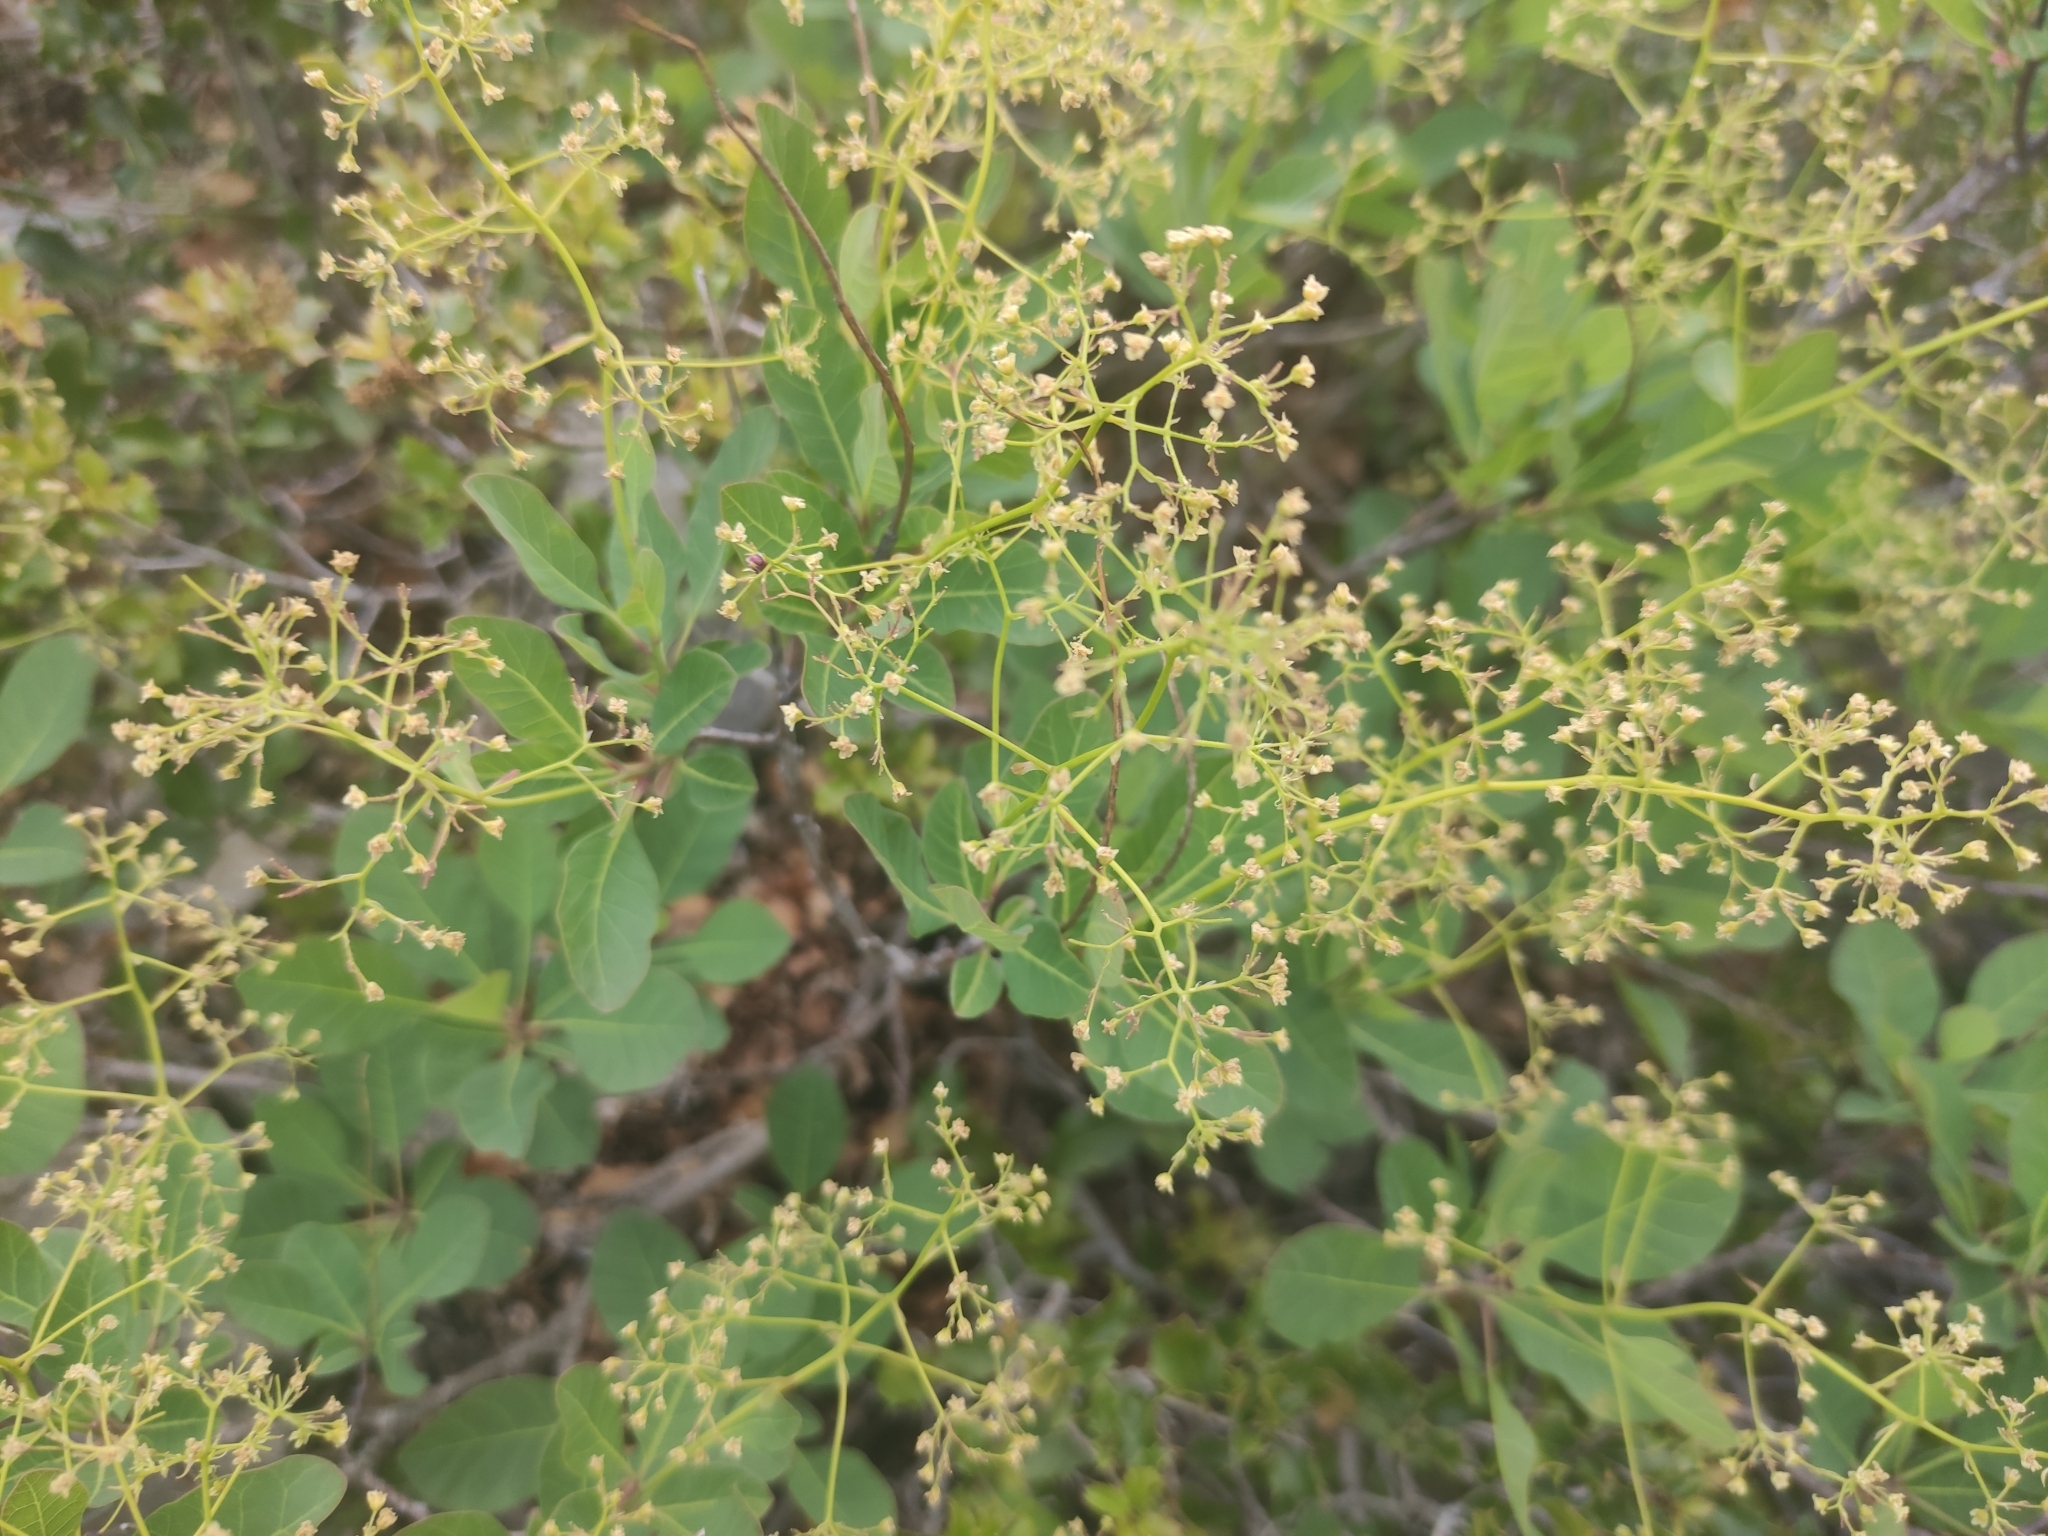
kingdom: Plantae
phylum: Tracheophyta
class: Magnoliopsida
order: Sapindales
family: Anacardiaceae
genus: Cotinus
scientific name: Cotinus coggygria
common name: Smoke-tree
